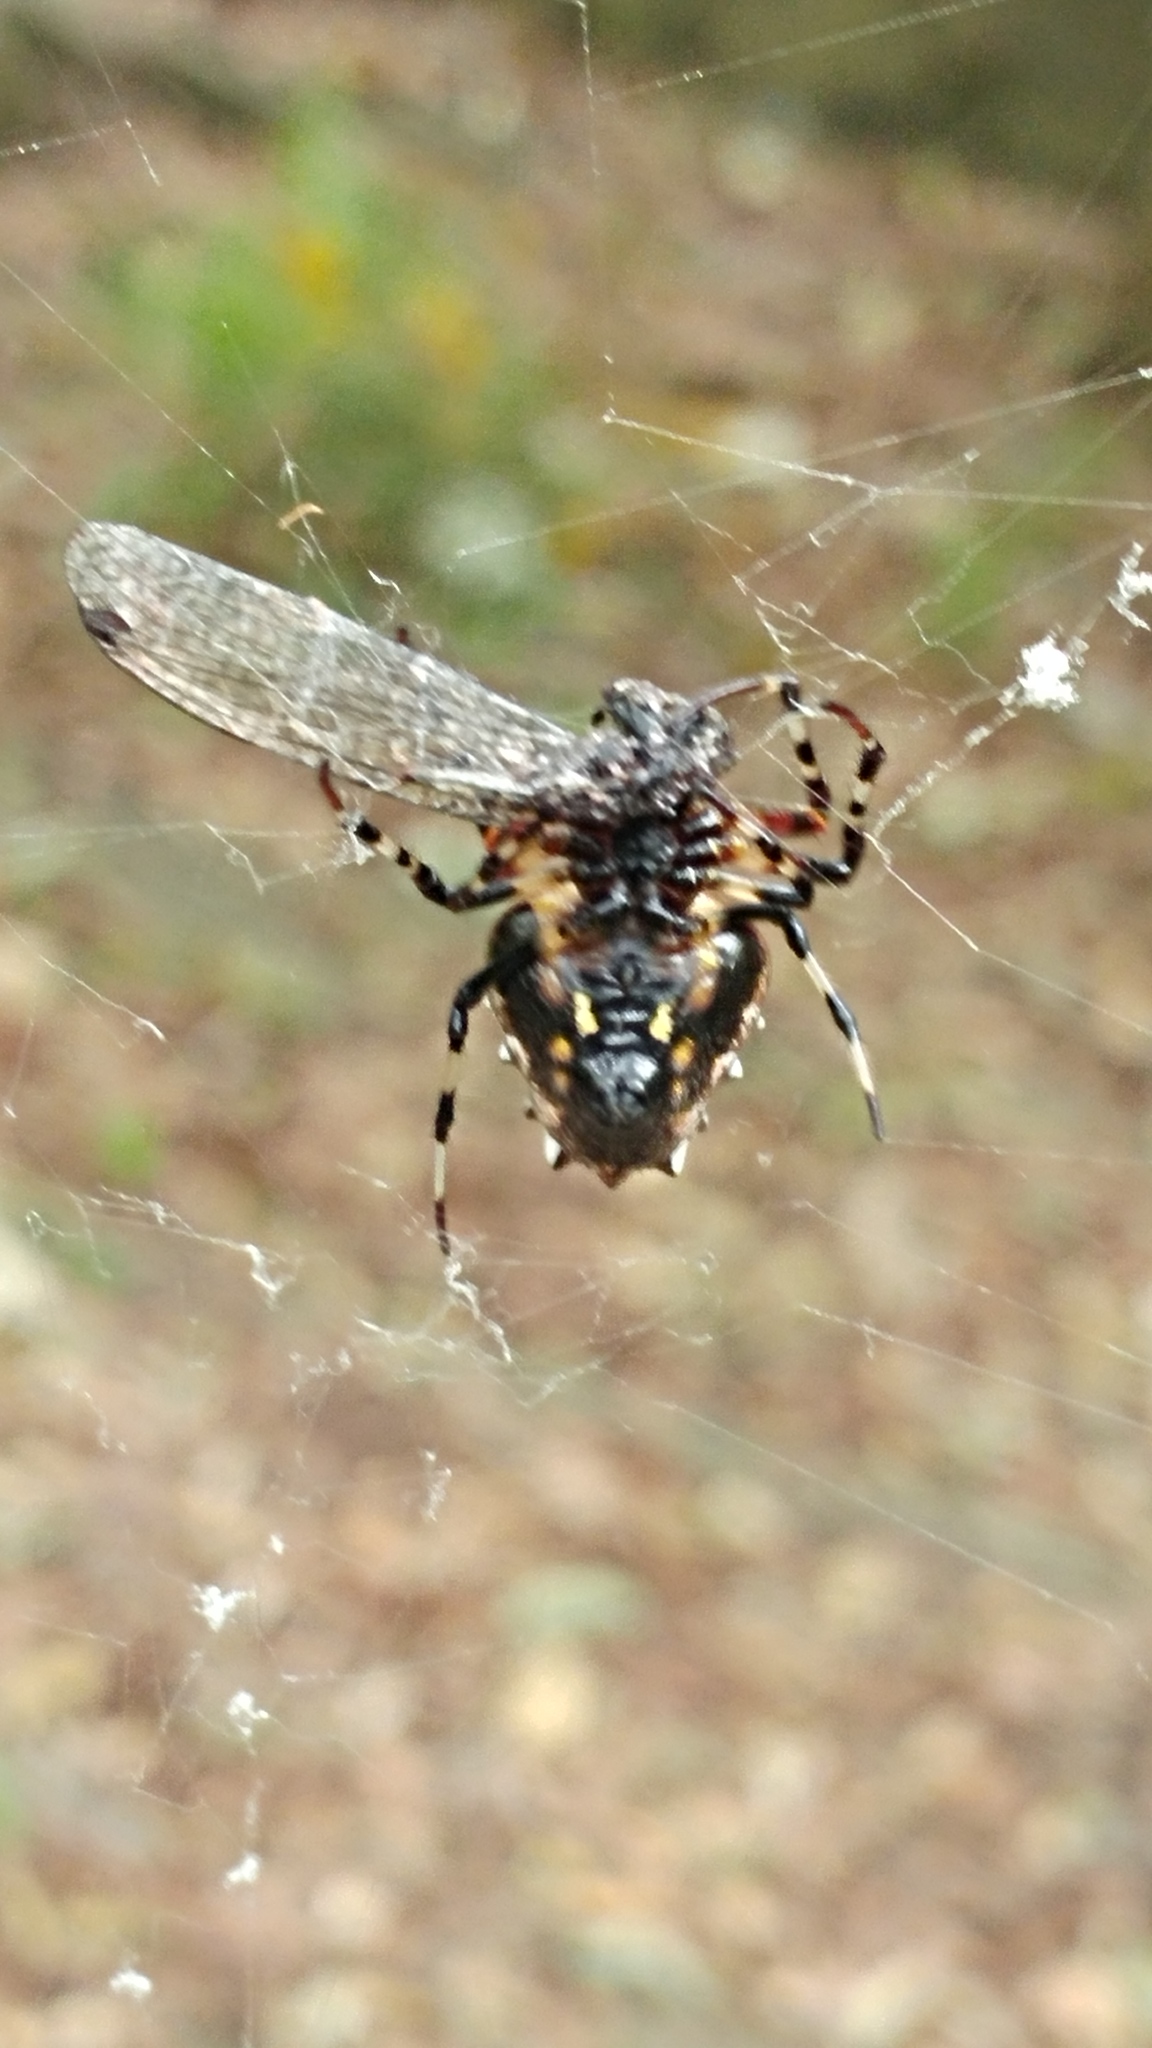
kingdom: Animalia
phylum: Arthropoda
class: Arachnida
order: Araneae
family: Araneidae
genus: Verrucosa
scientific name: Verrucosa arenata
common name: Orb weavers
